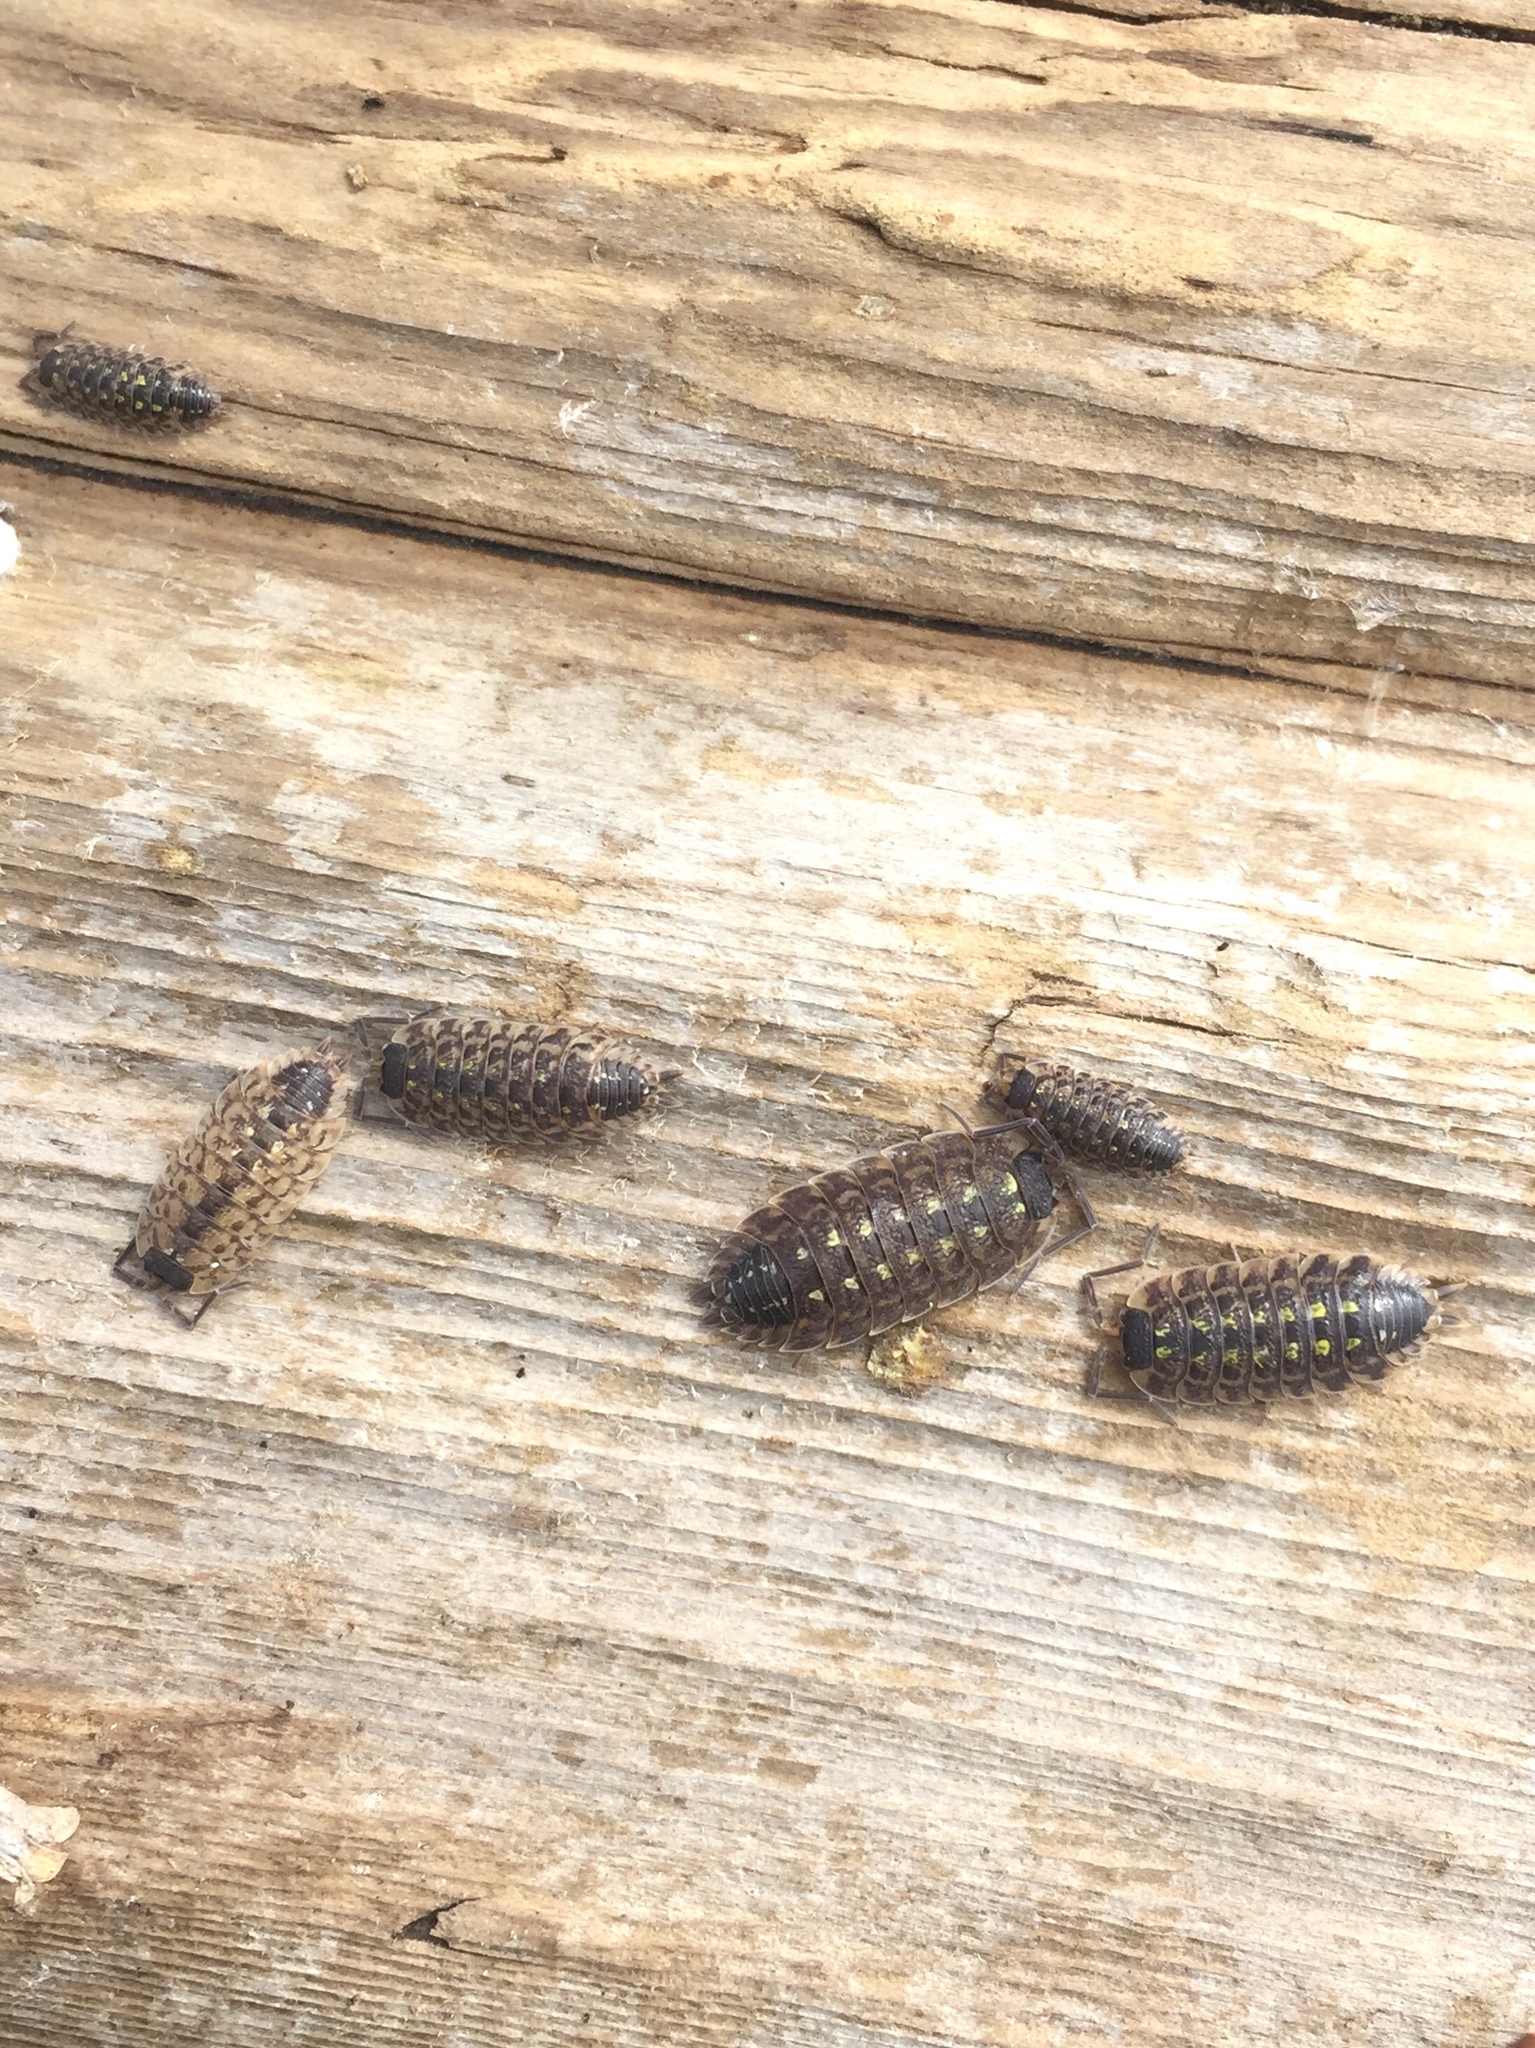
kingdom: Animalia
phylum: Arthropoda
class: Malacostraca
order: Isopoda
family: Porcellionidae
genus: Porcellio
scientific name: Porcellio spinicornis
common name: Painted woodlouse
